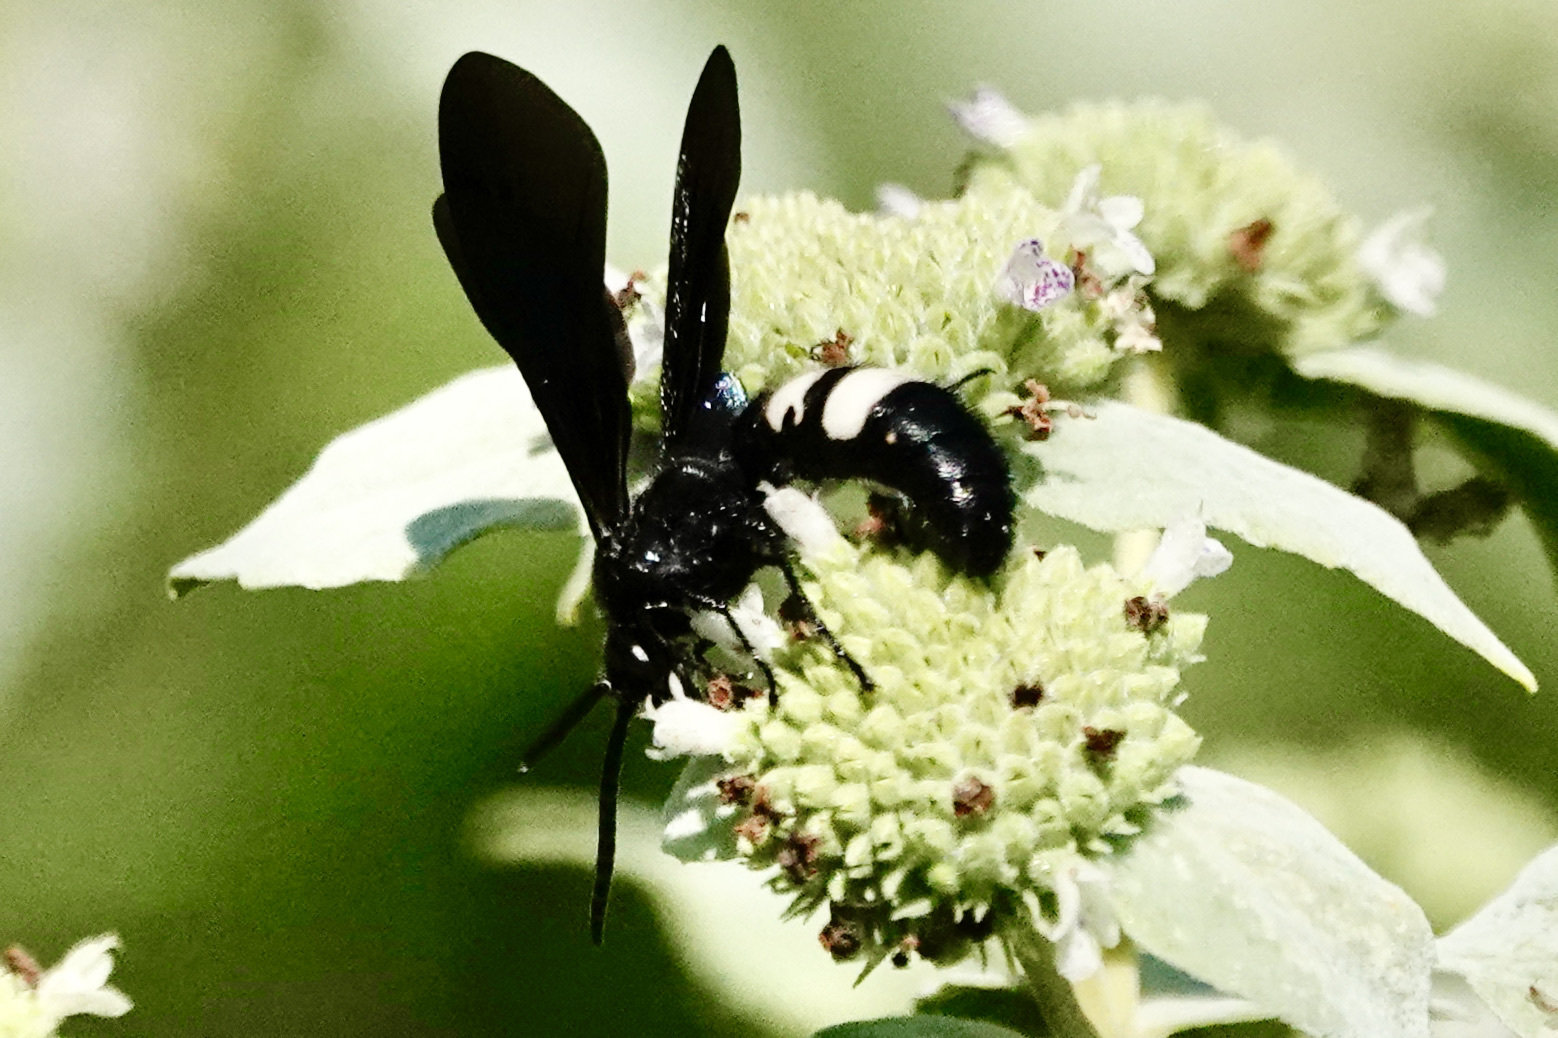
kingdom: Animalia
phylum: Arthropoda
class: Insecta
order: Hymenoptera
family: Scoliidae
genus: Scolia
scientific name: Scolia bicincta
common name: Double-banded scoliid wasp
